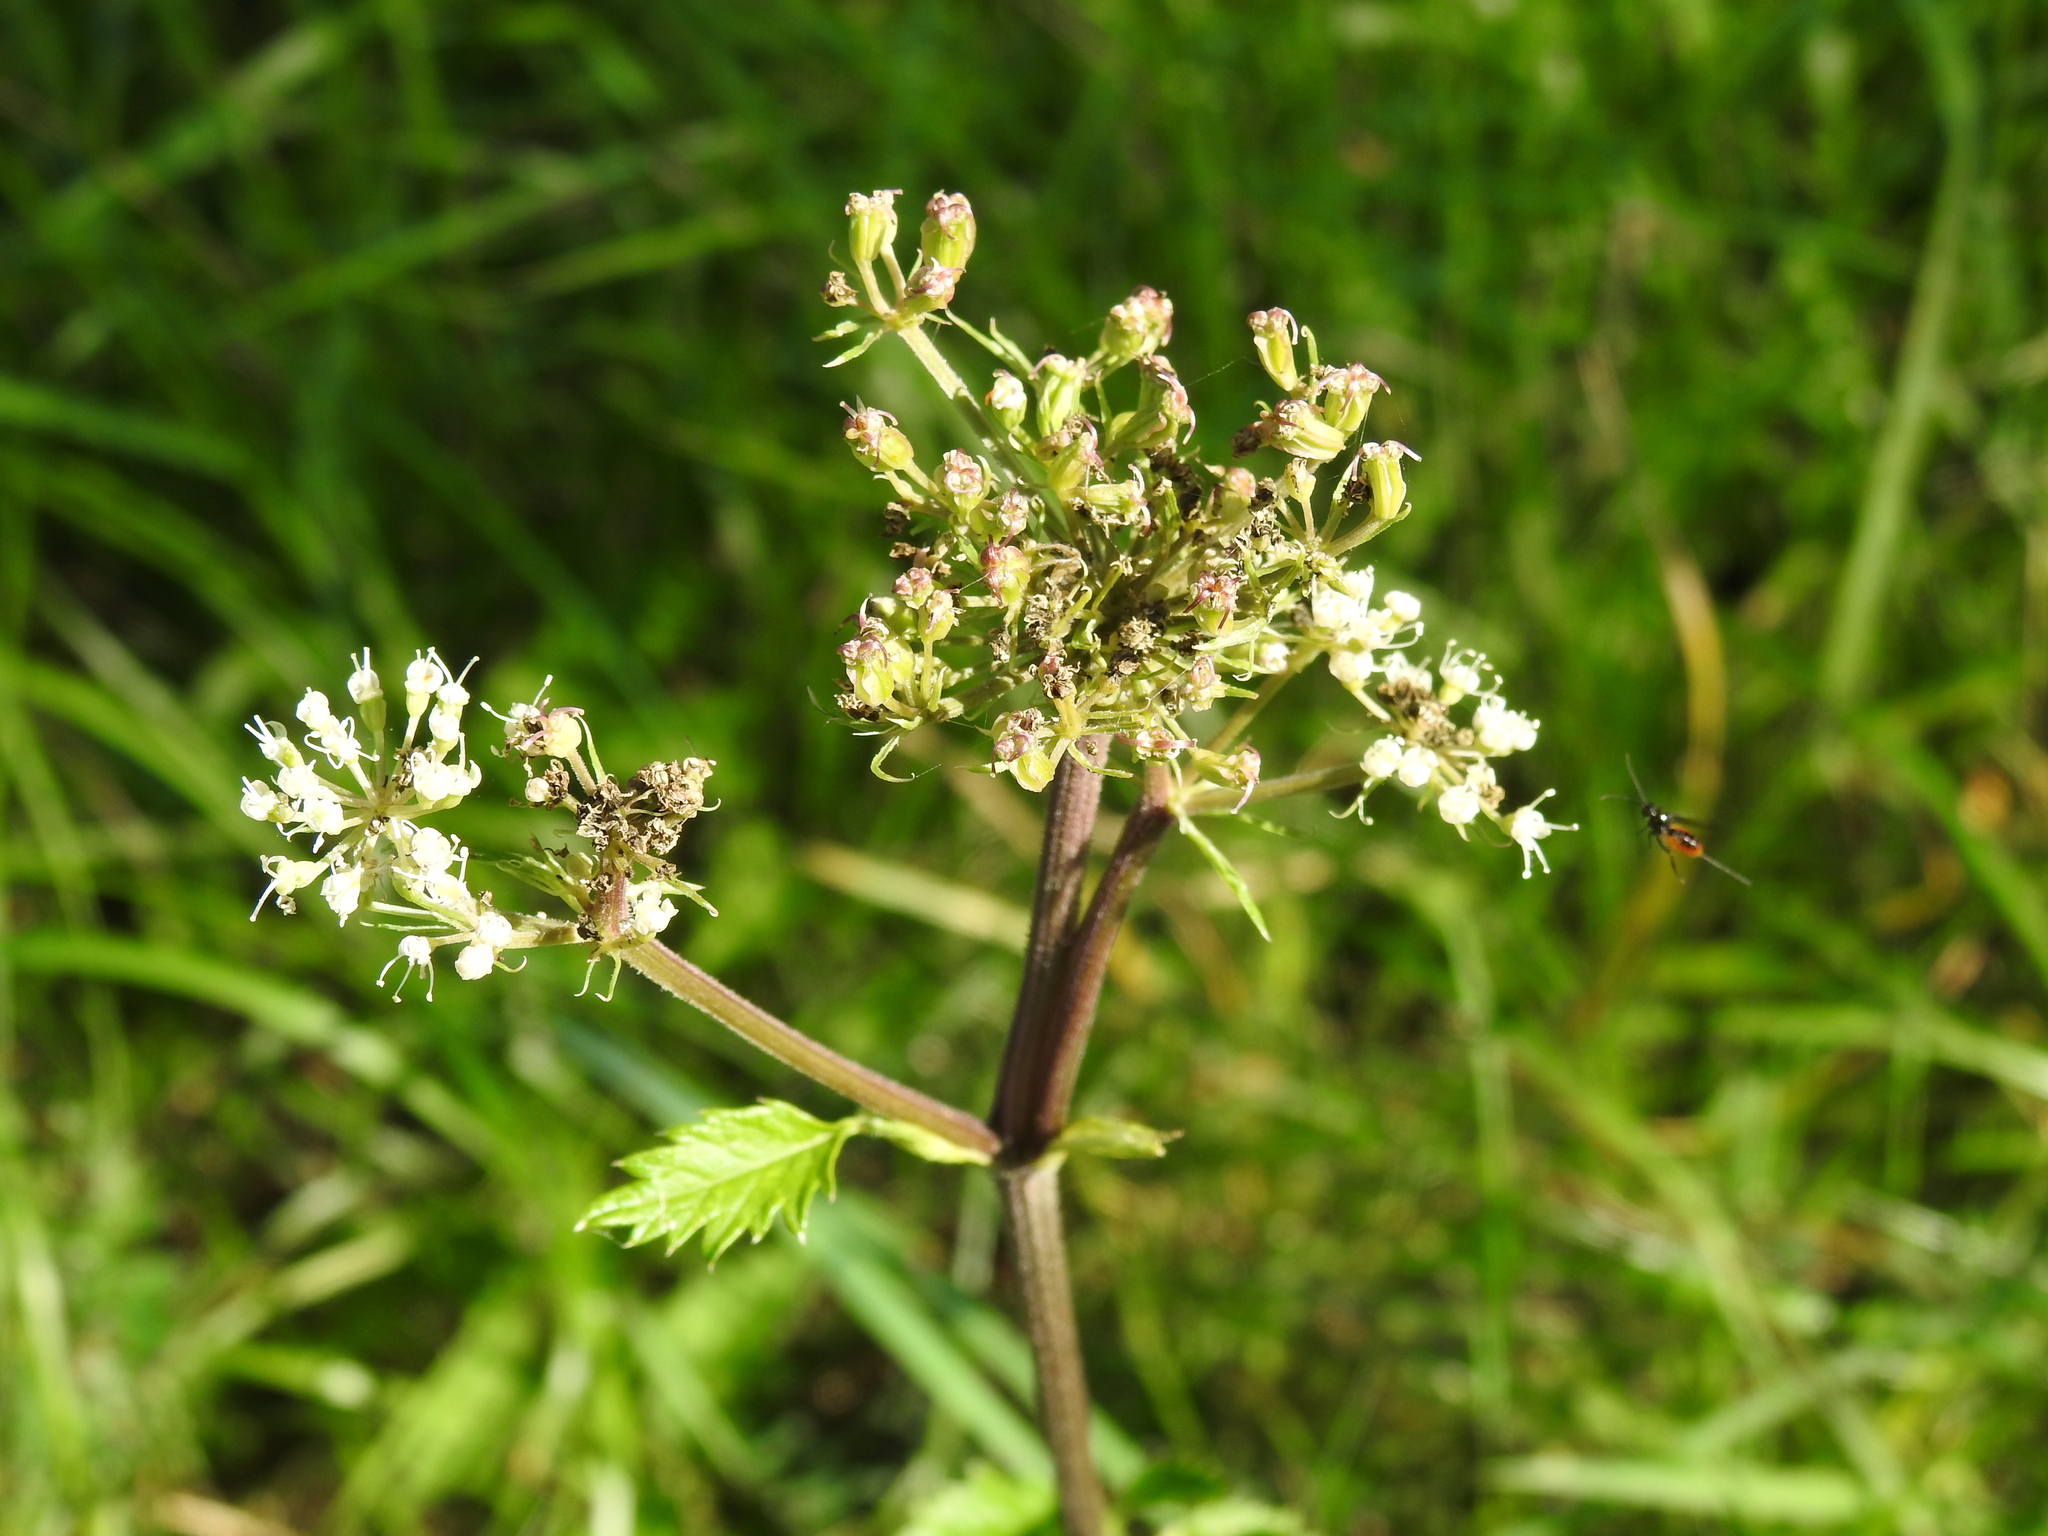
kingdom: Plantae
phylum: Tracheophyta
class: Magnoliopsida
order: Asterales
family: Asteraceae
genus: Cirsium
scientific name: Cirsium palustre
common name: Marsh thistle
